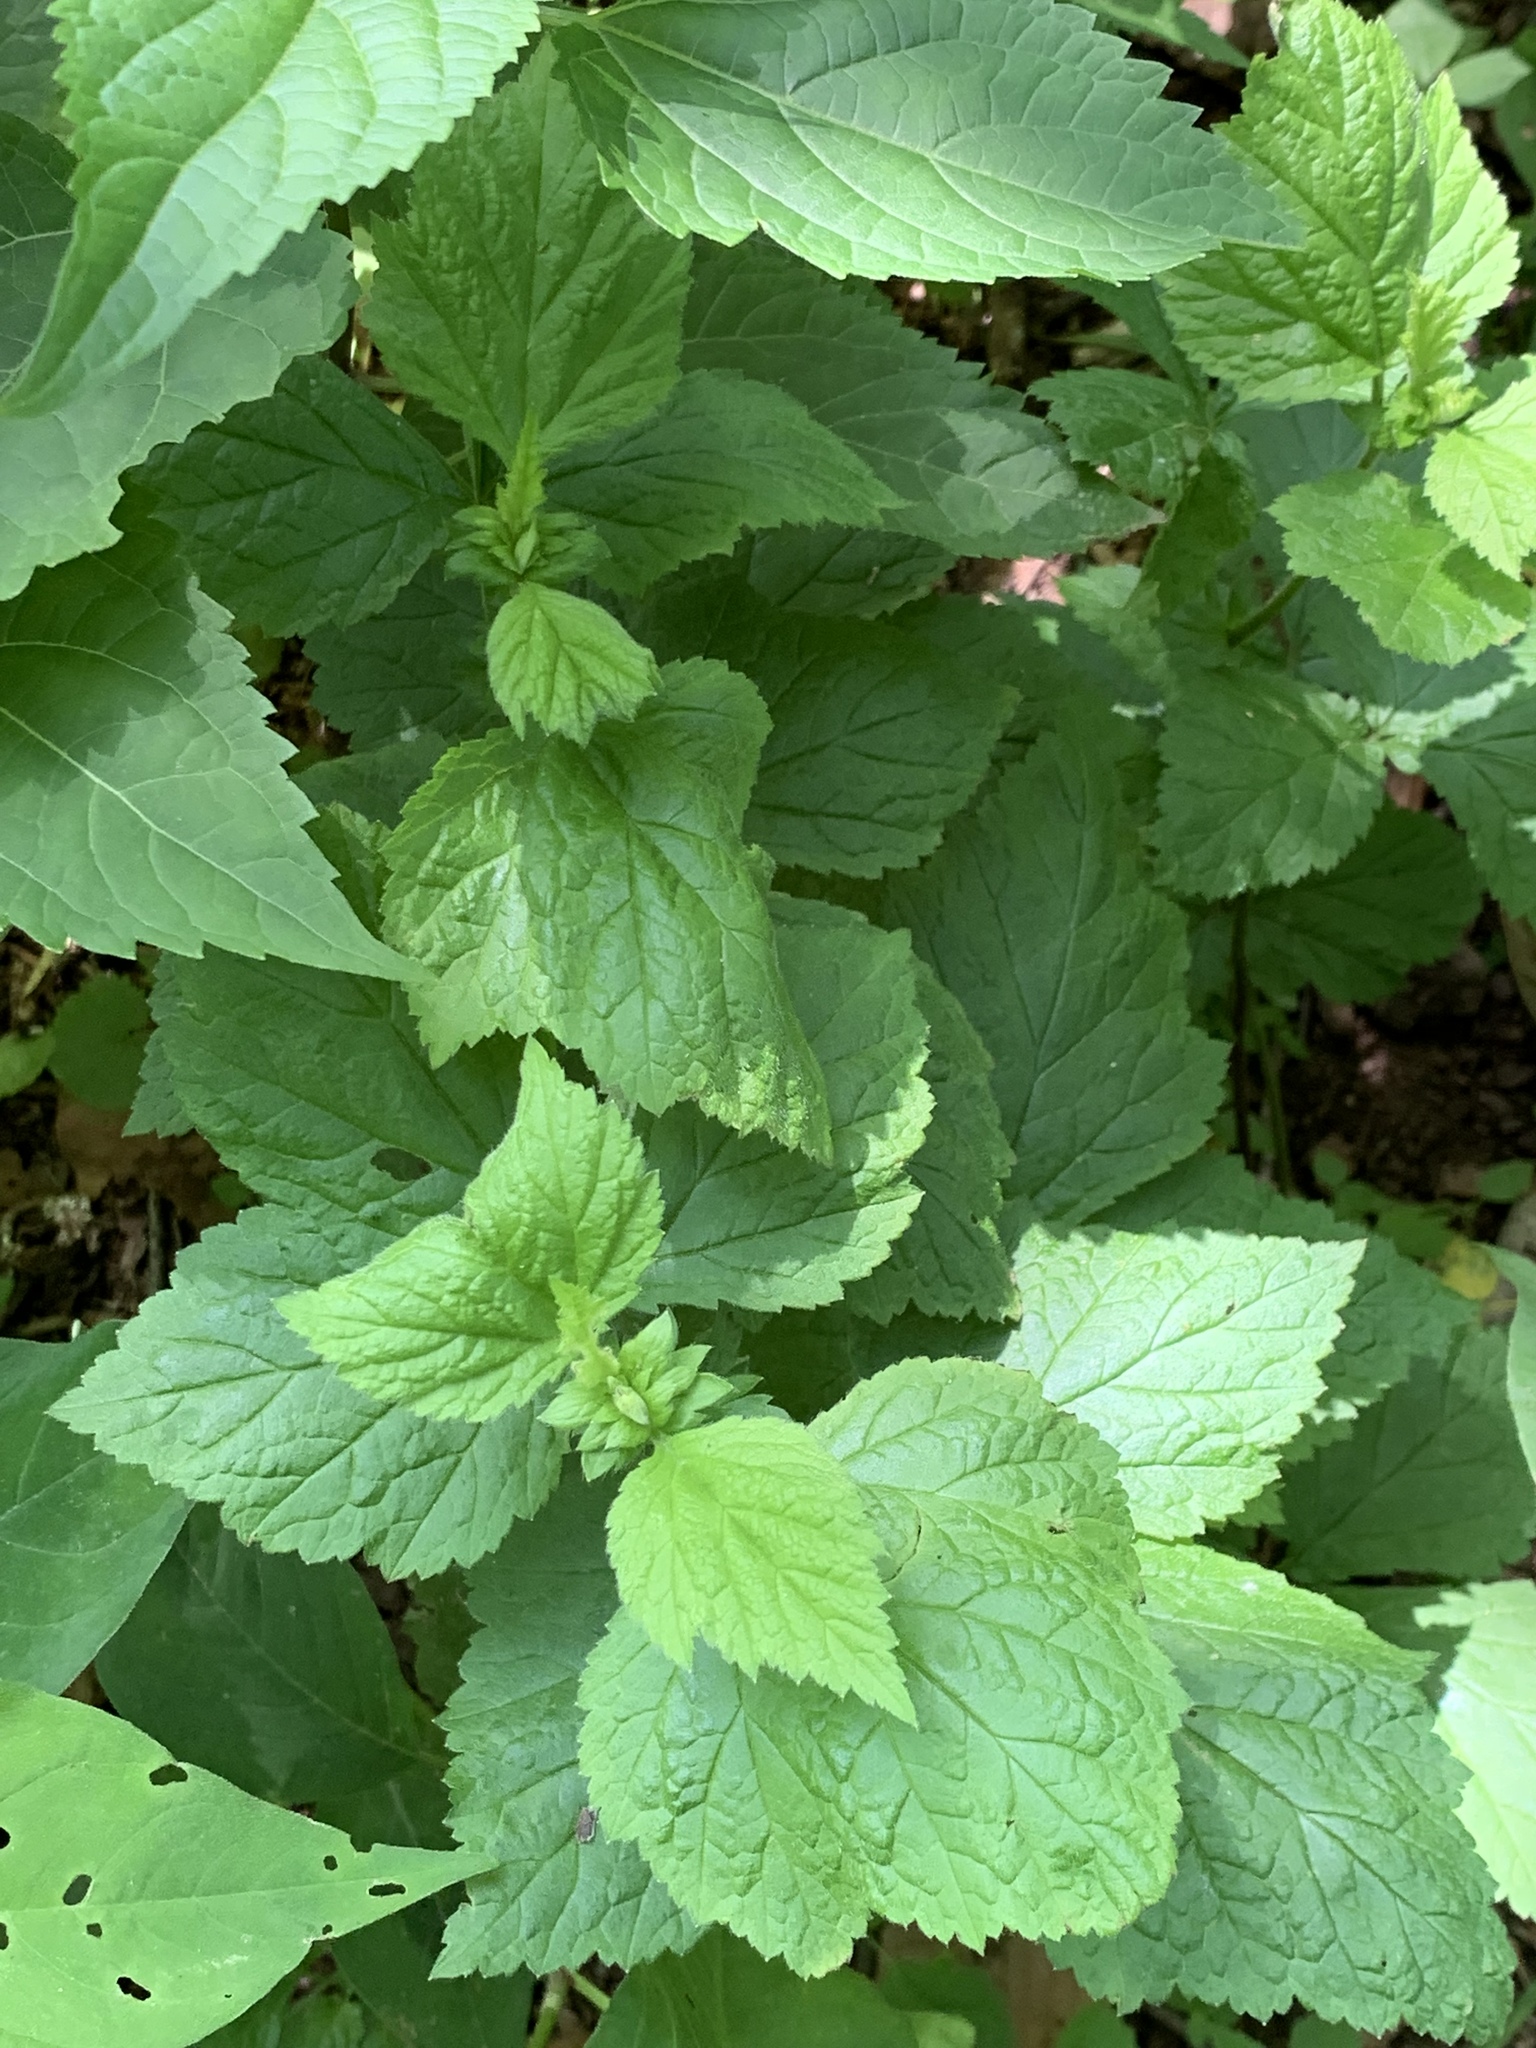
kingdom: Plantae
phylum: Tracheophyta
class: Magnoliopsida
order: Rosales
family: Rosaceae
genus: Geum
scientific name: Geum canadense
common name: White avens
